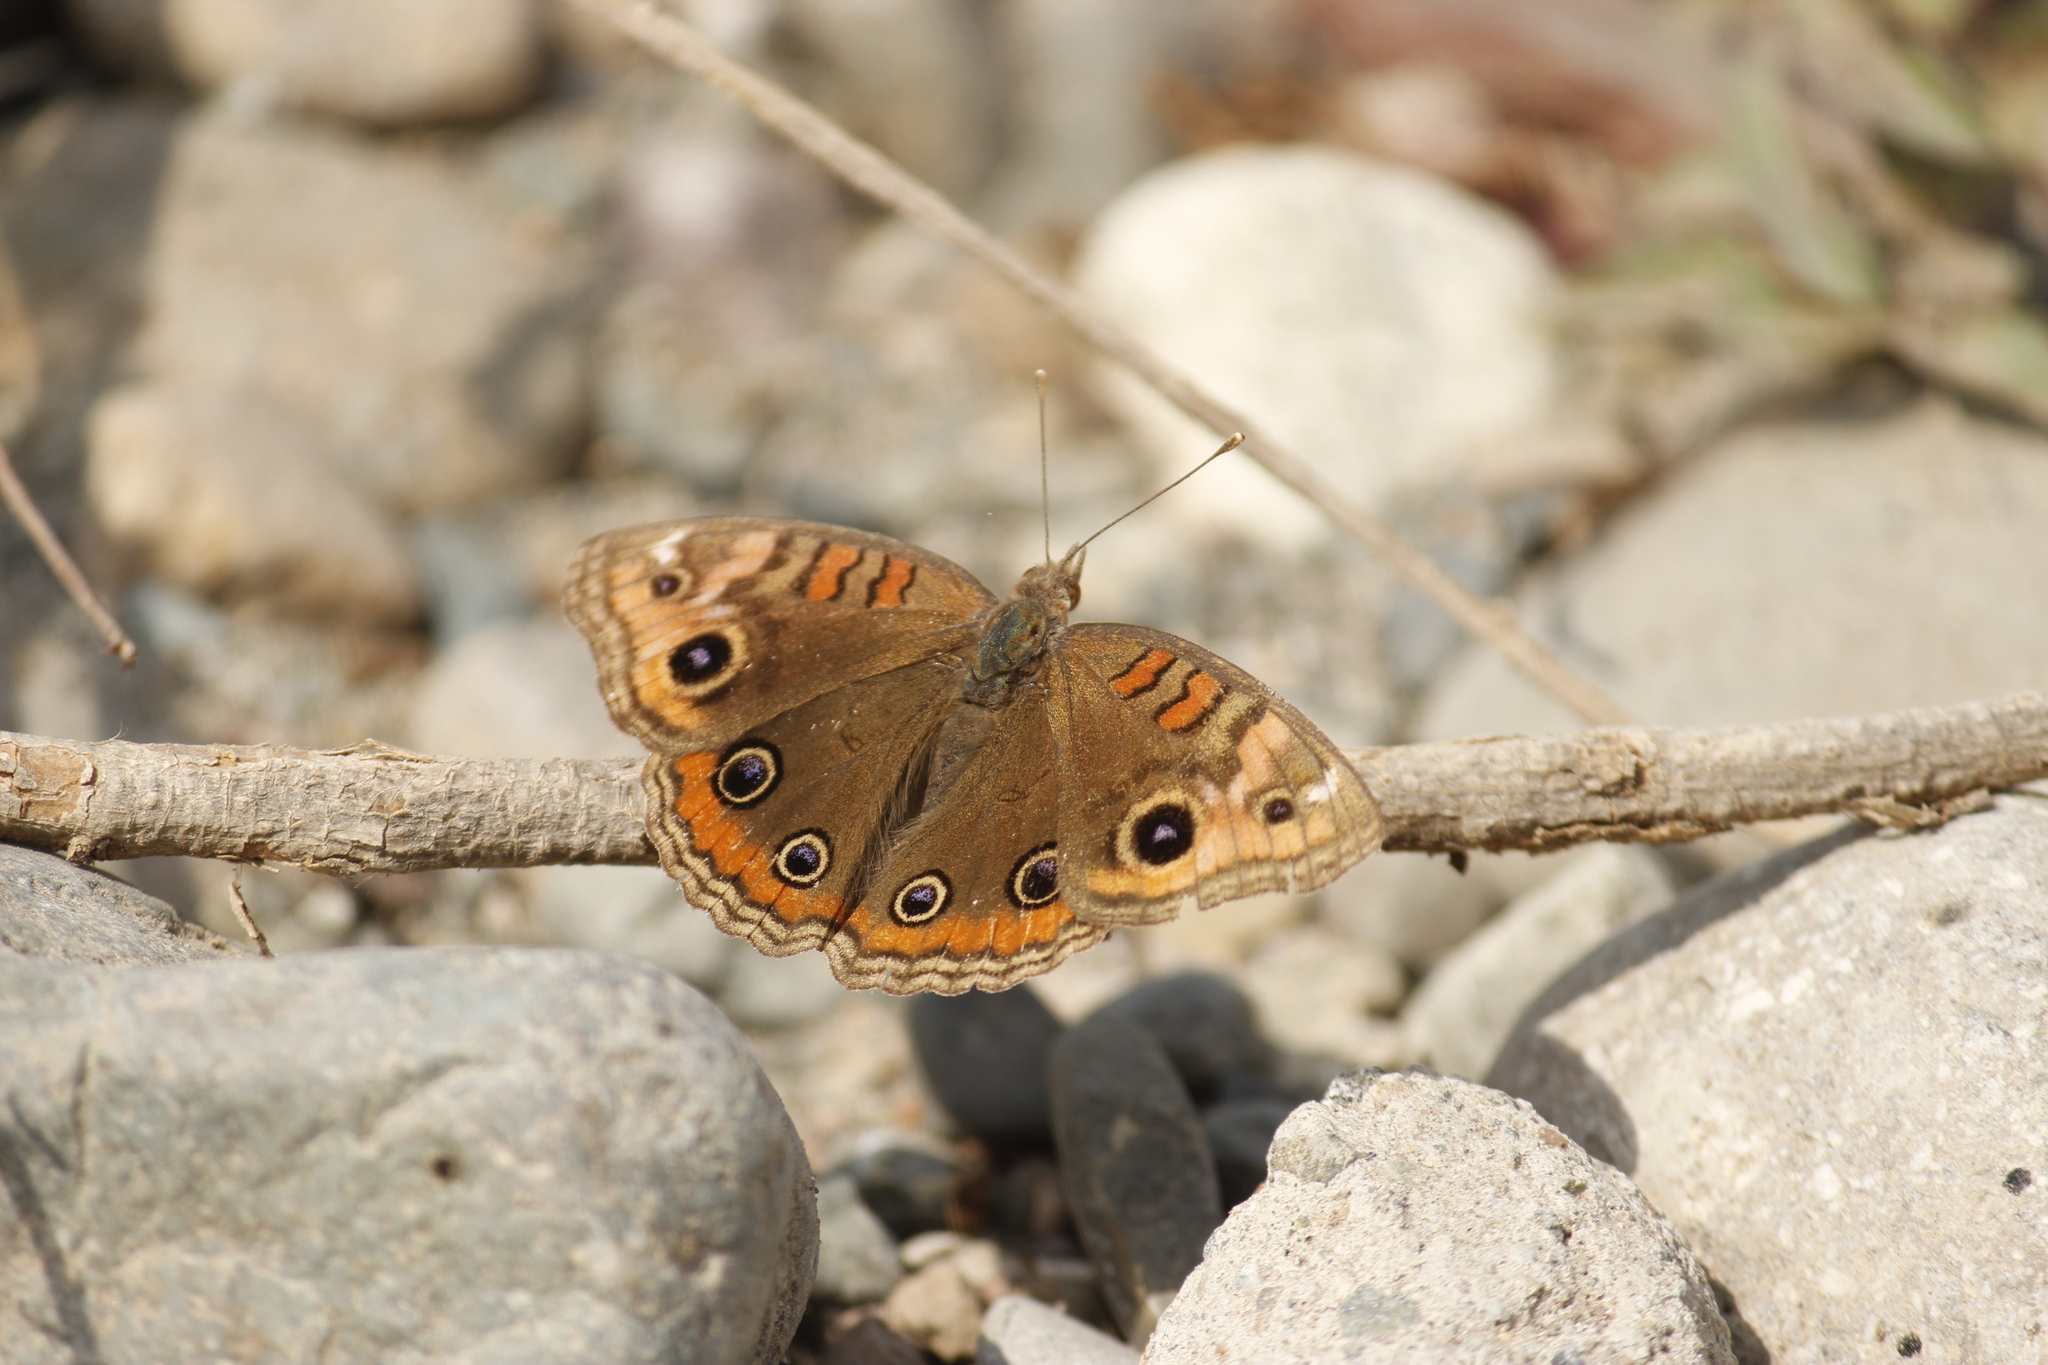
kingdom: Animalia
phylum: Arthropoda
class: Insecta
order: Lepidoptera
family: Nymphalidae
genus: Junonia
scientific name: Junonia lavinia
